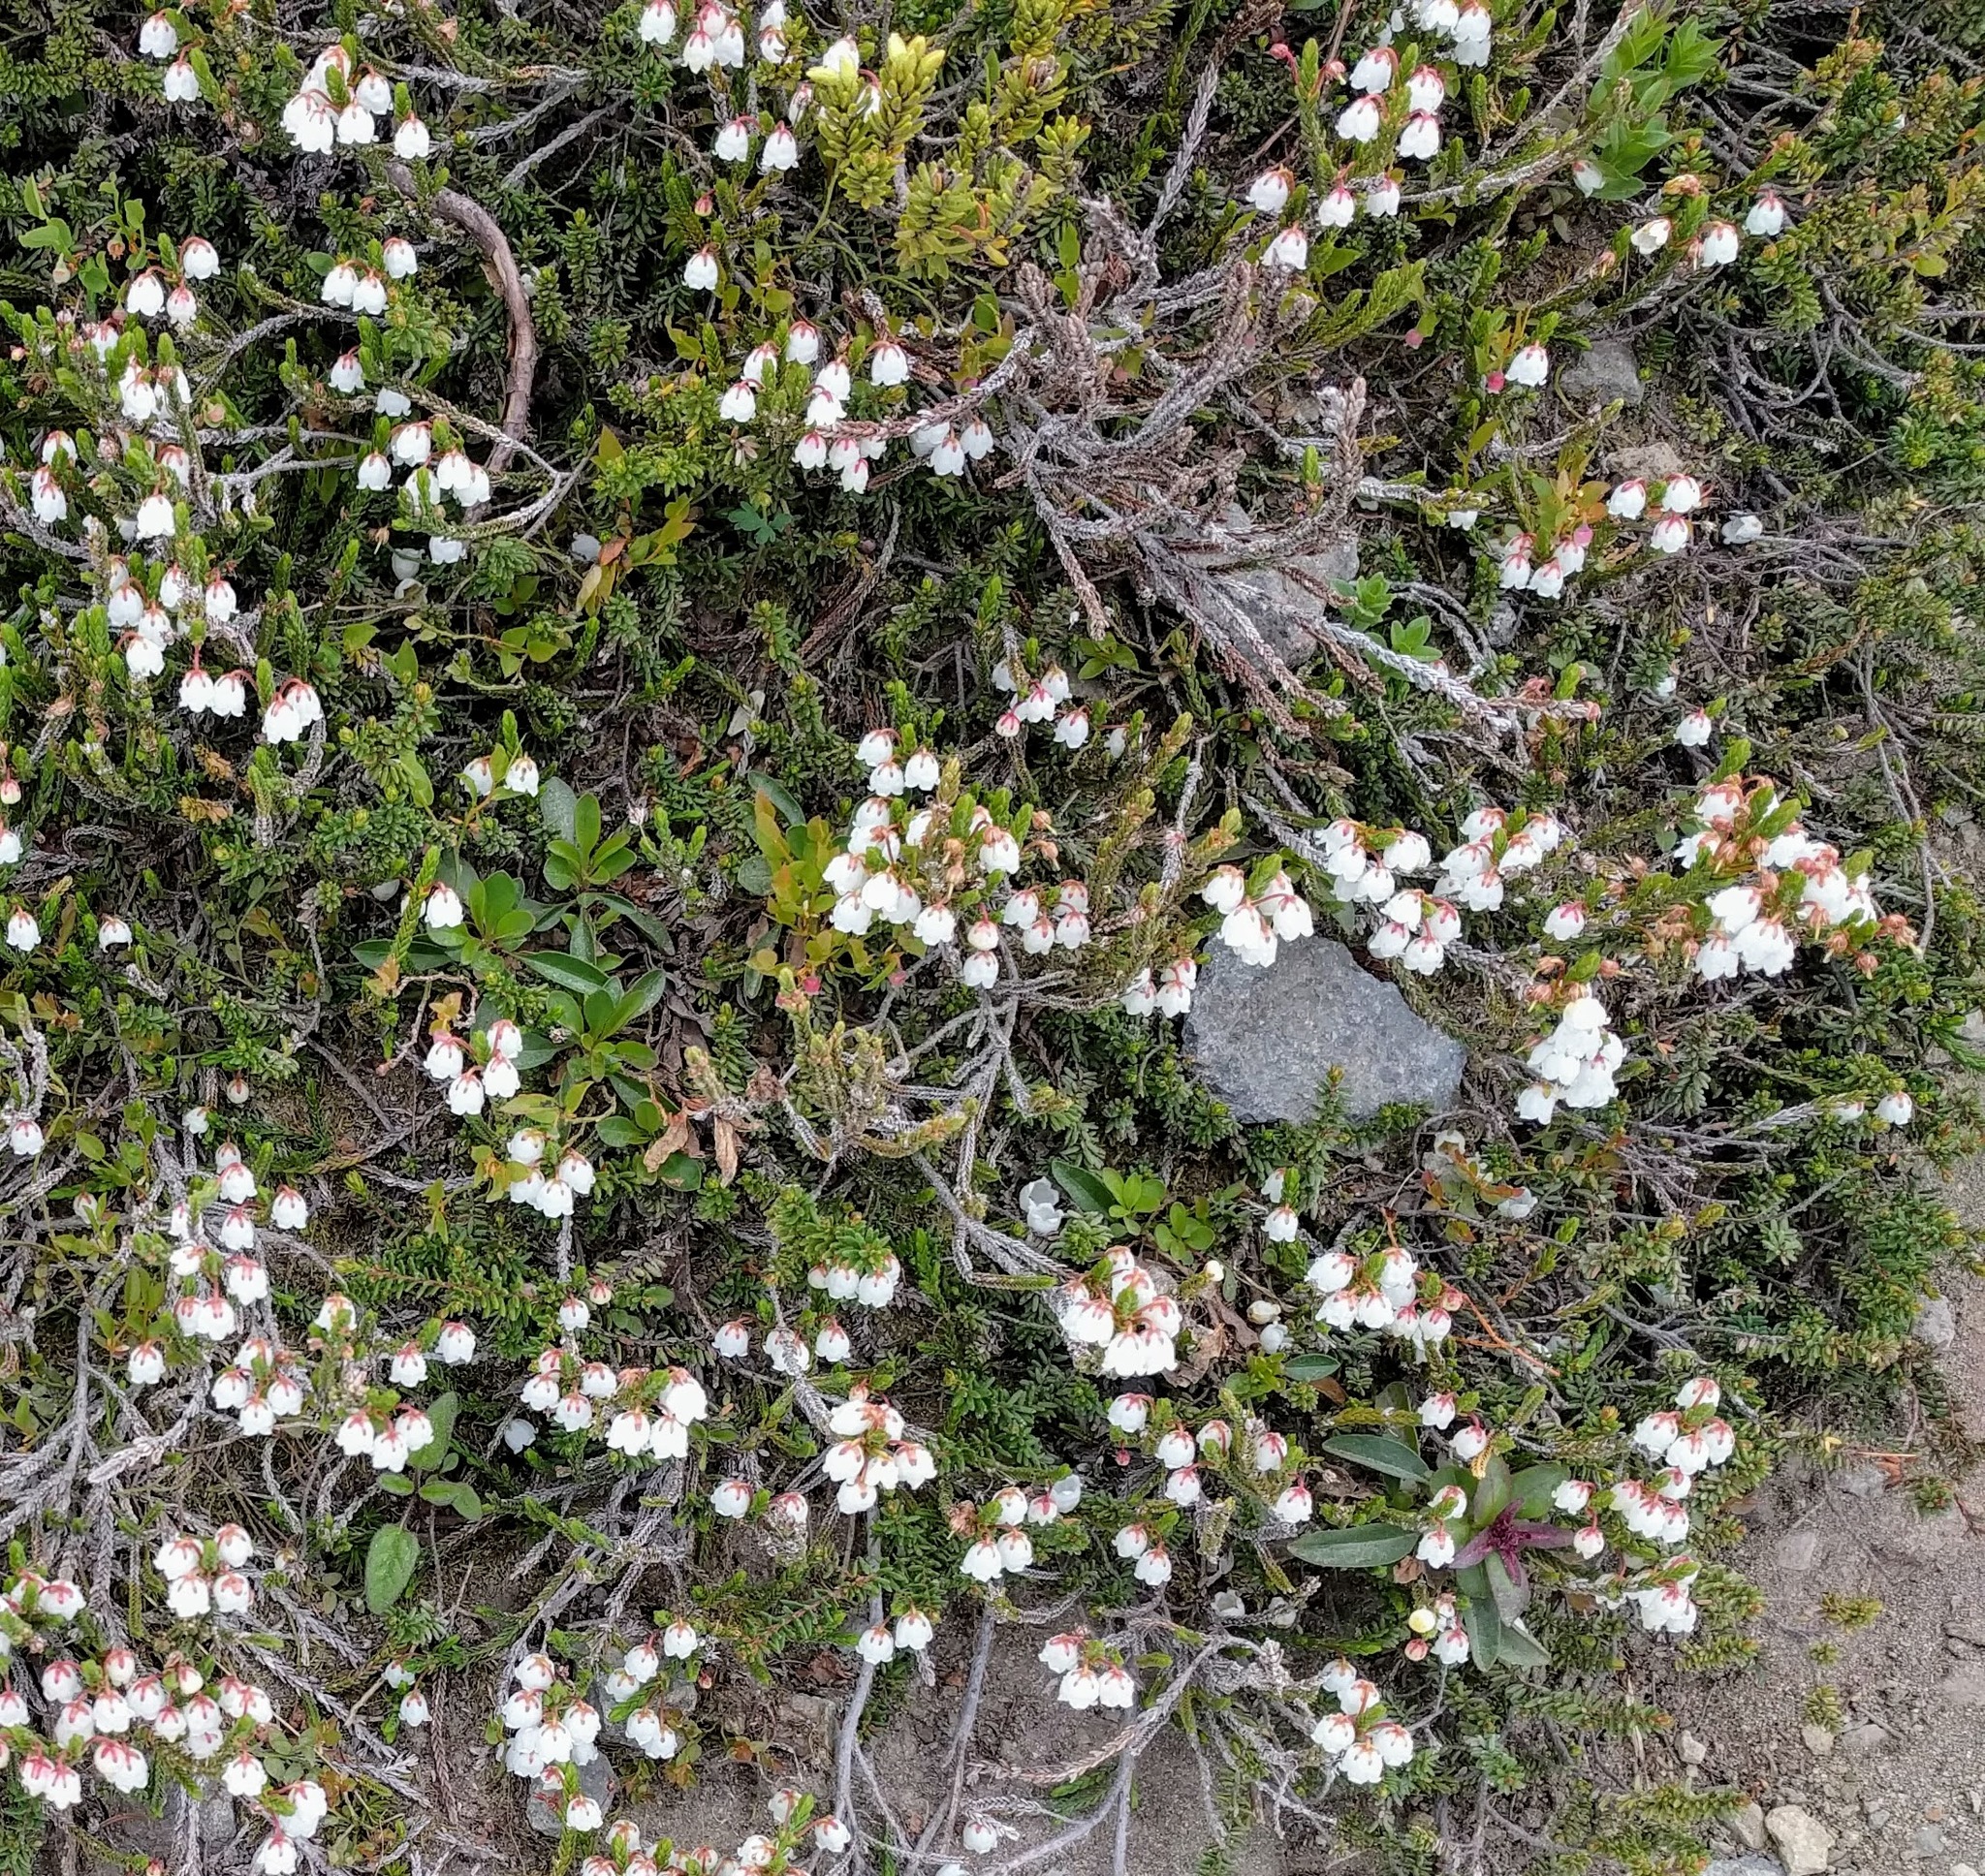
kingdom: Plantae
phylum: Tracheophyta
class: Magnoliopsida
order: Ericales
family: Ericaceae
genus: Cassiope
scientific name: Cassiope mertensiana
